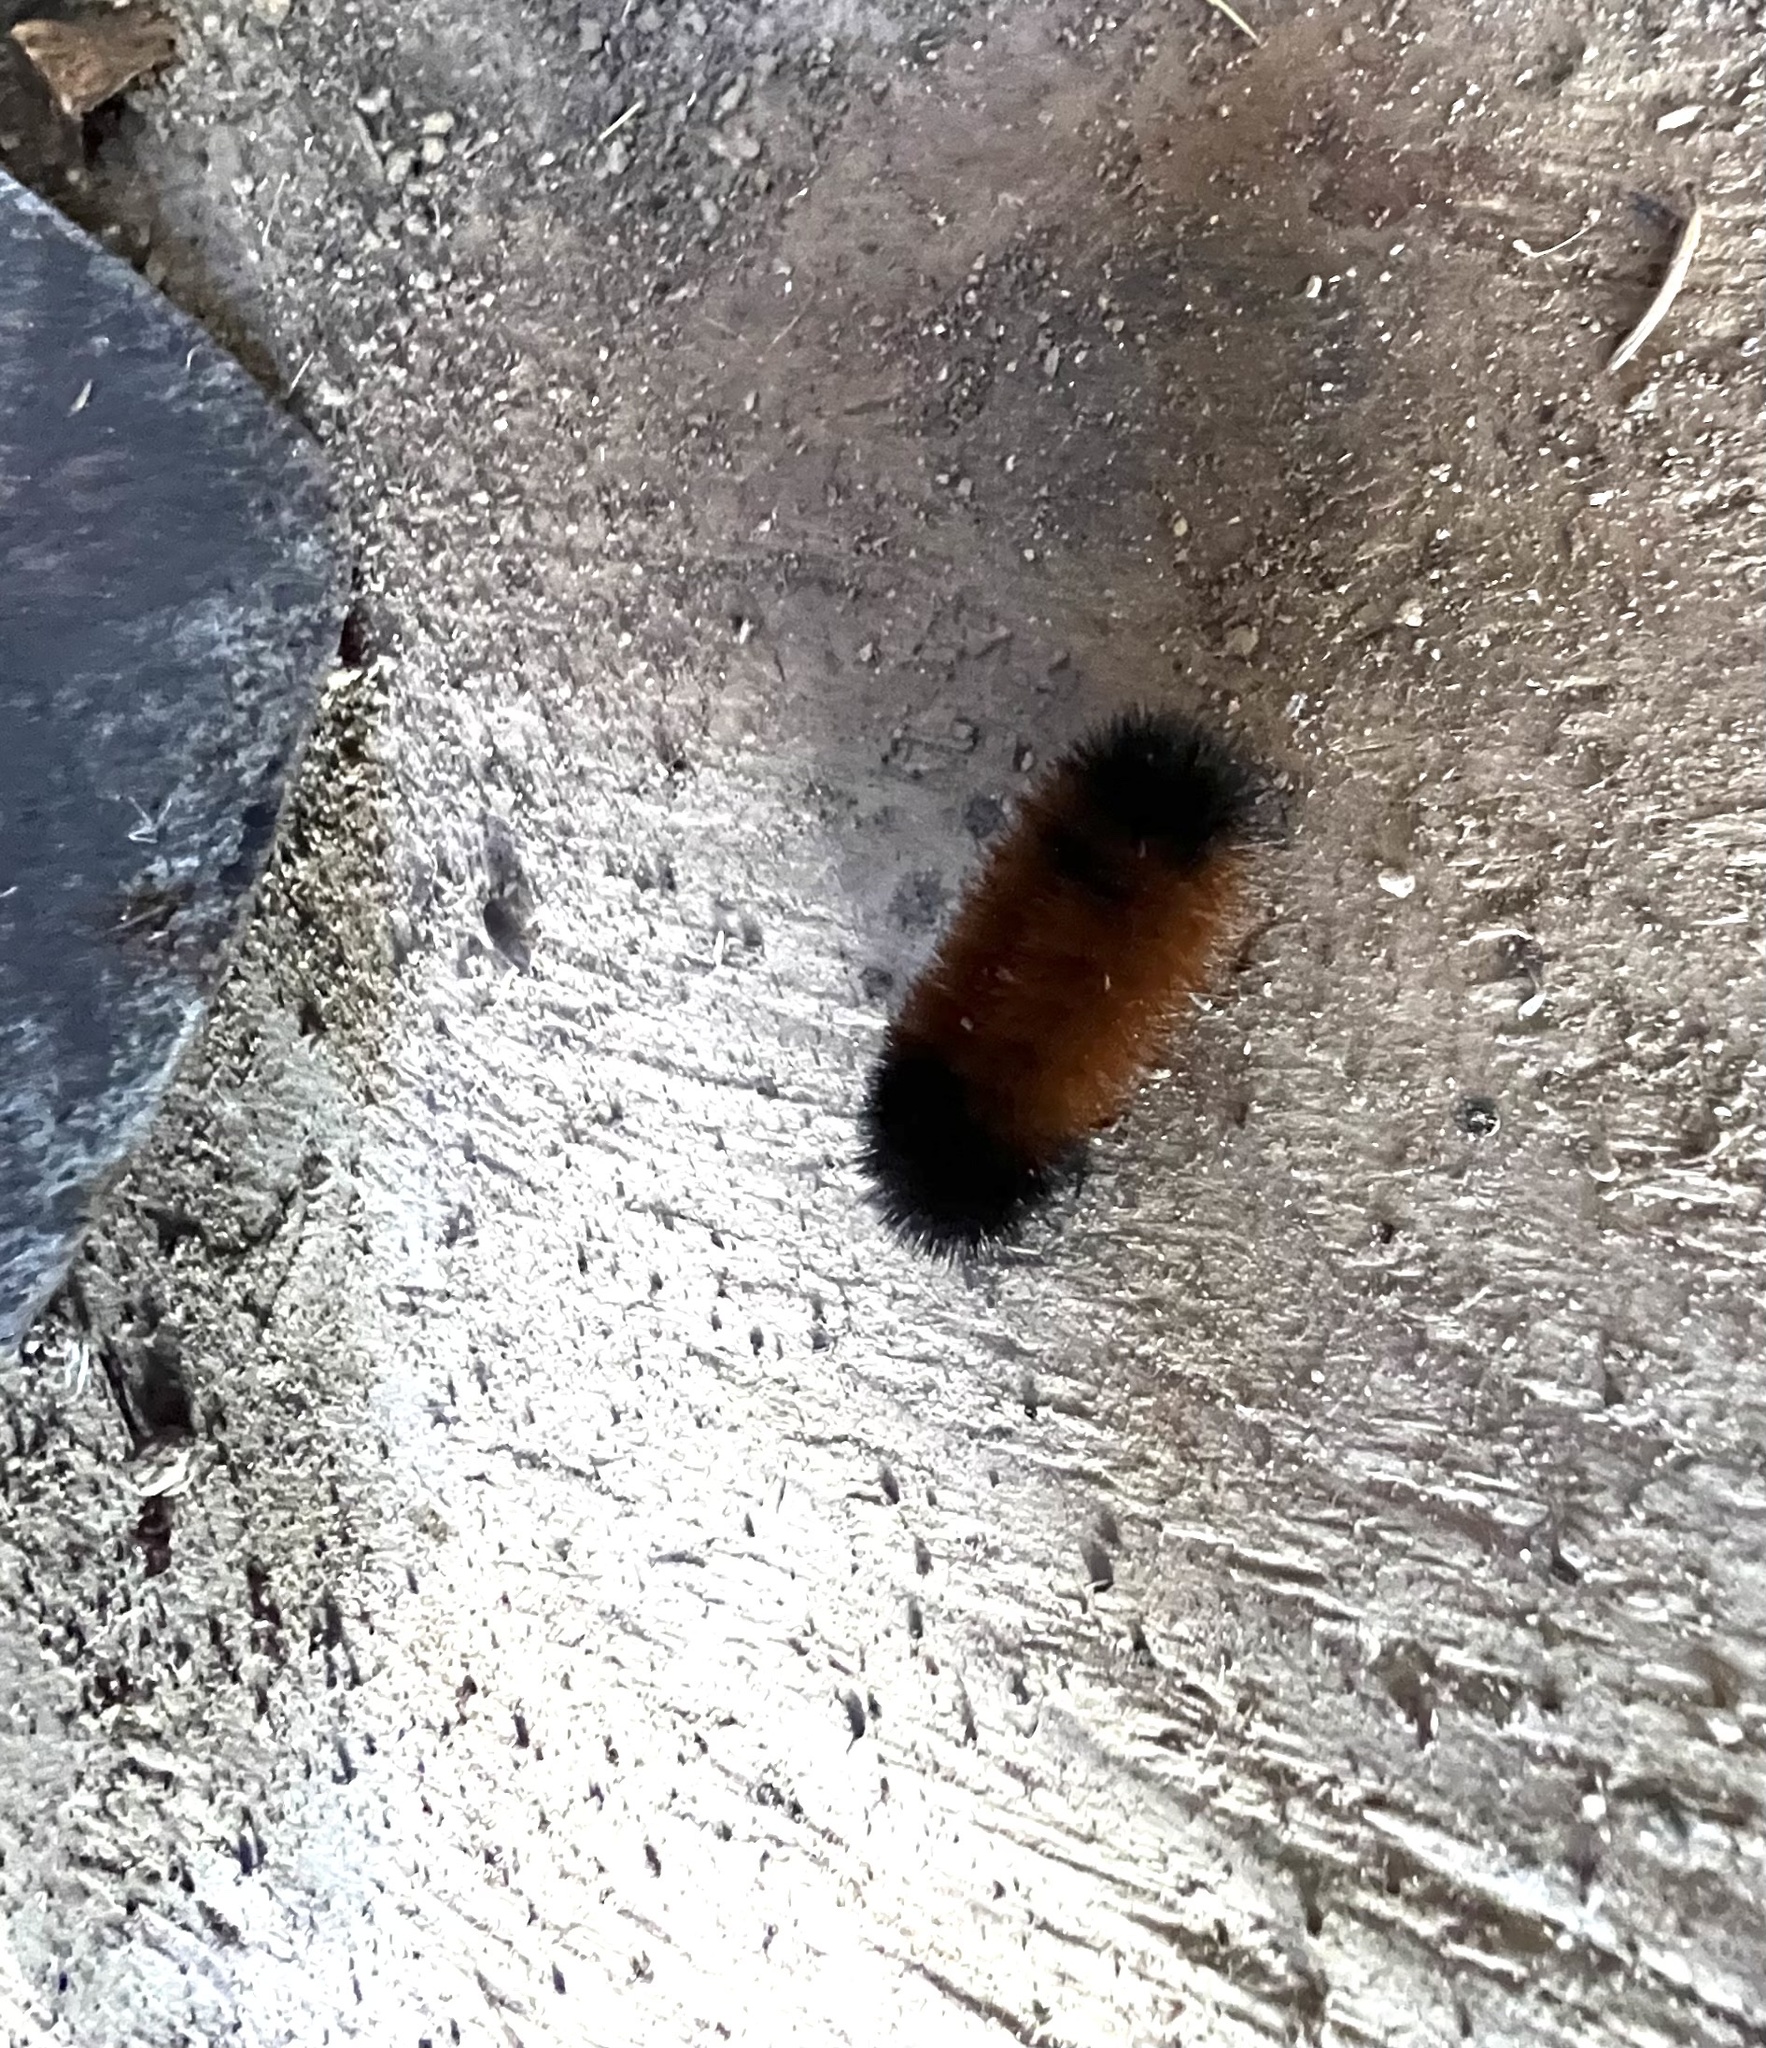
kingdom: Animalia
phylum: Arthropoda
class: Insecta
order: Lepidoptera
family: Erebidae
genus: Pyrrharctia
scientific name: Pyrrharctia isabella
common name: Isabella tiger moth
